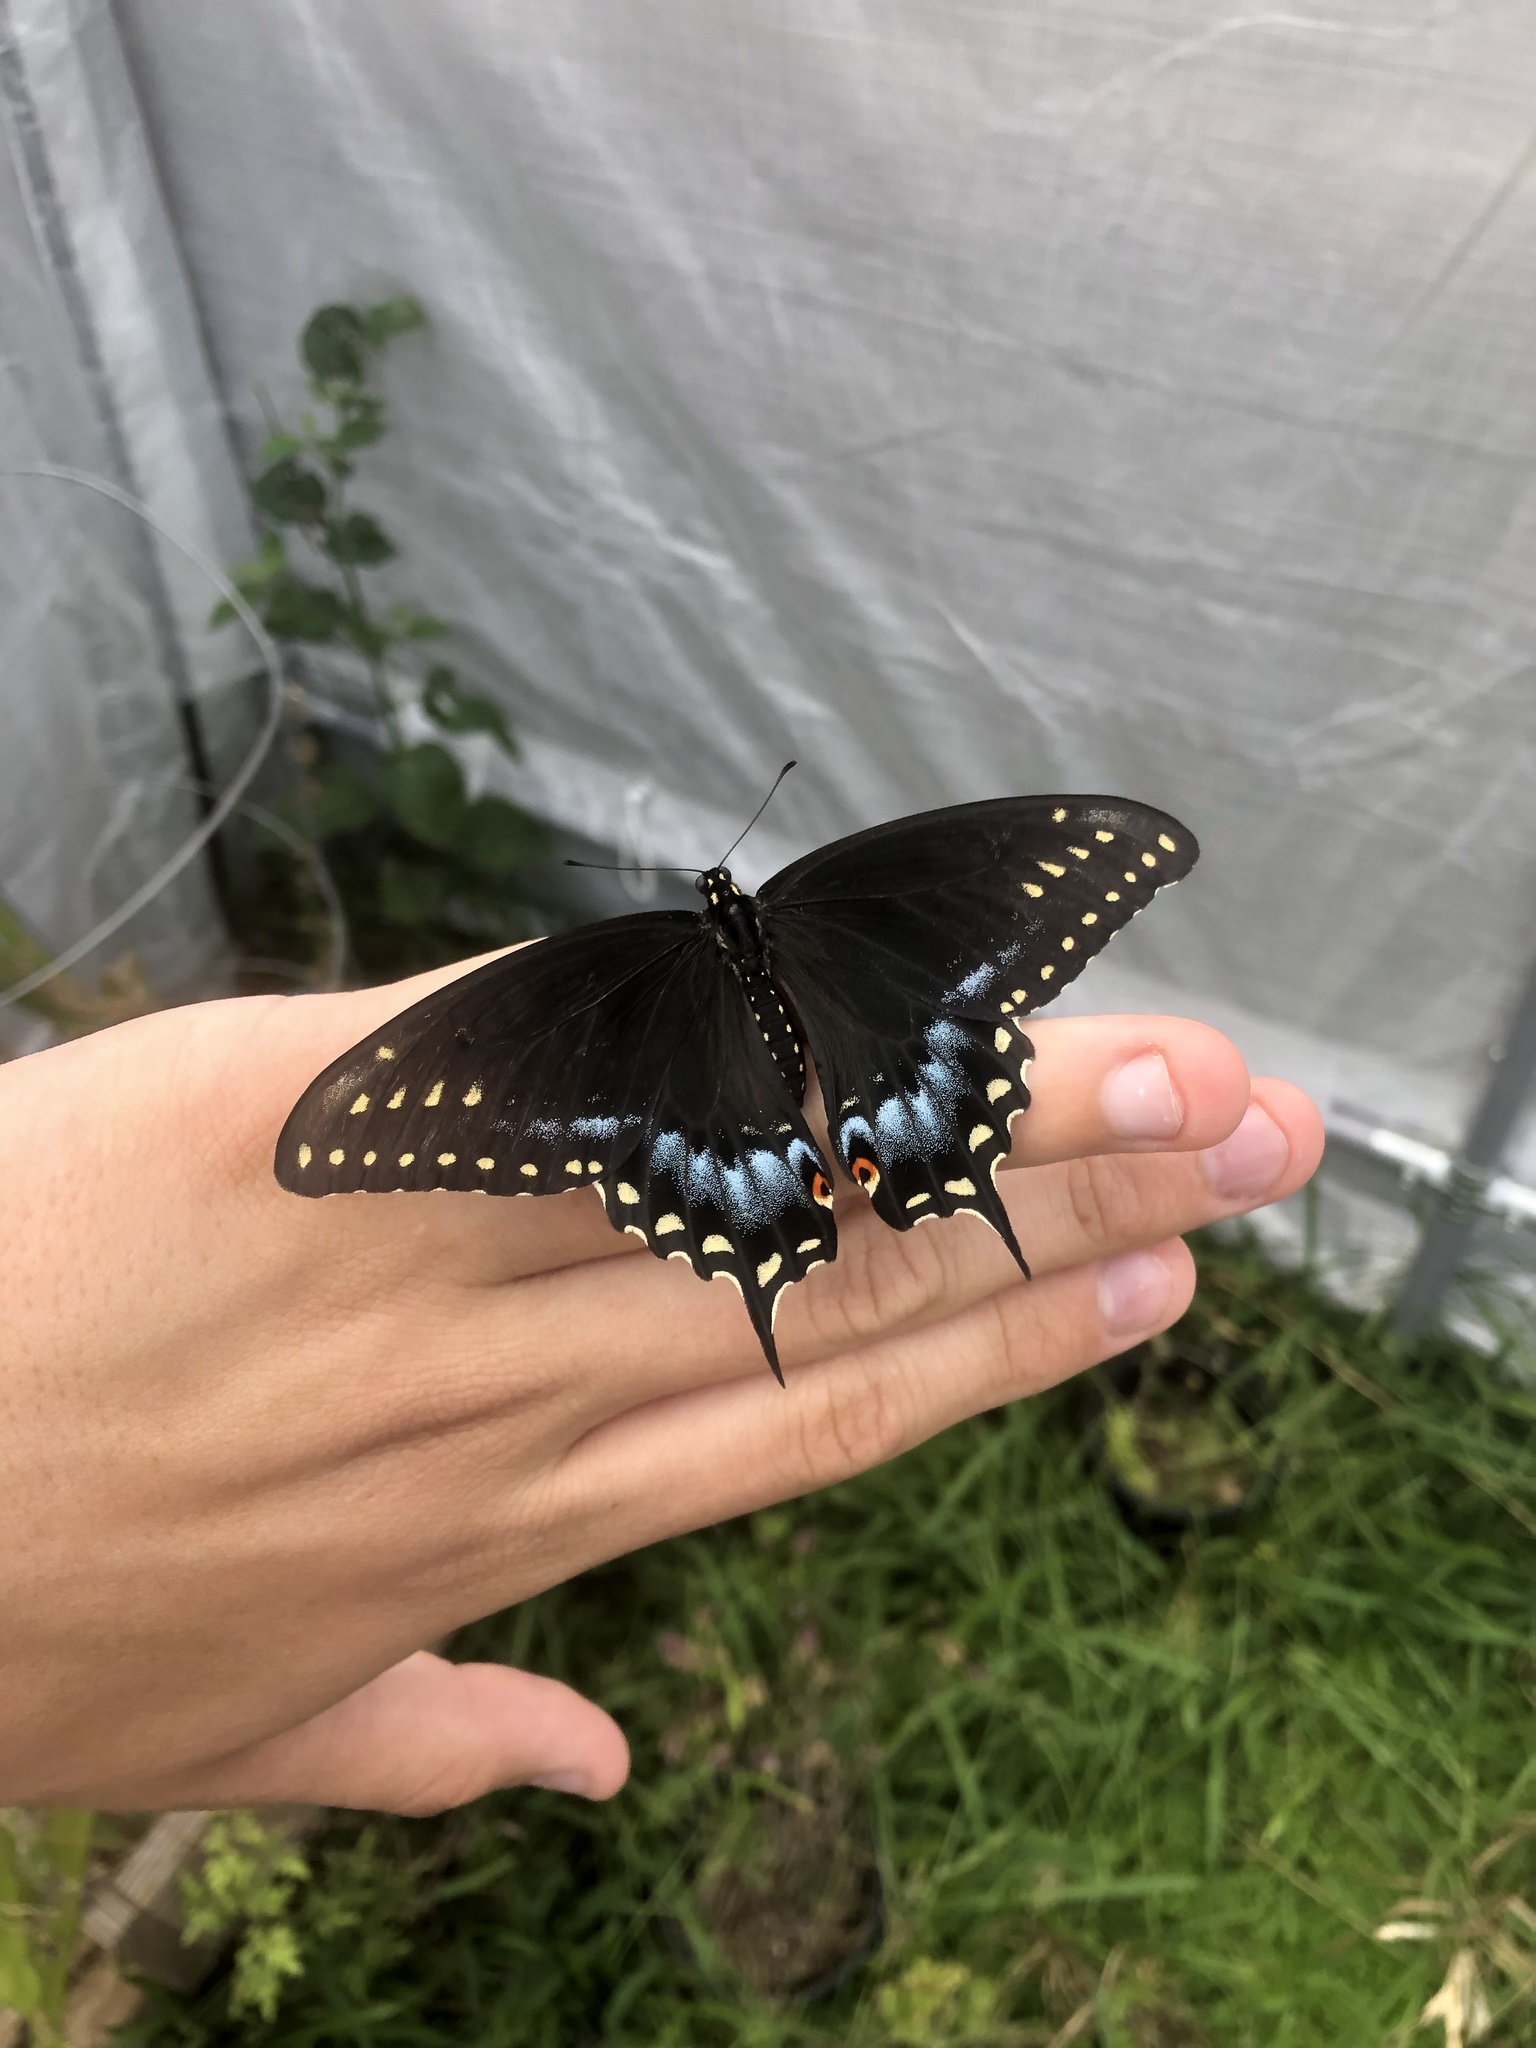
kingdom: Animalia
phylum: Arthropoda
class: Insecta
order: Lepidoptera
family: Papilionidae
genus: Papilio
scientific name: Papilio polyxenes
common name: Black swallowtail
